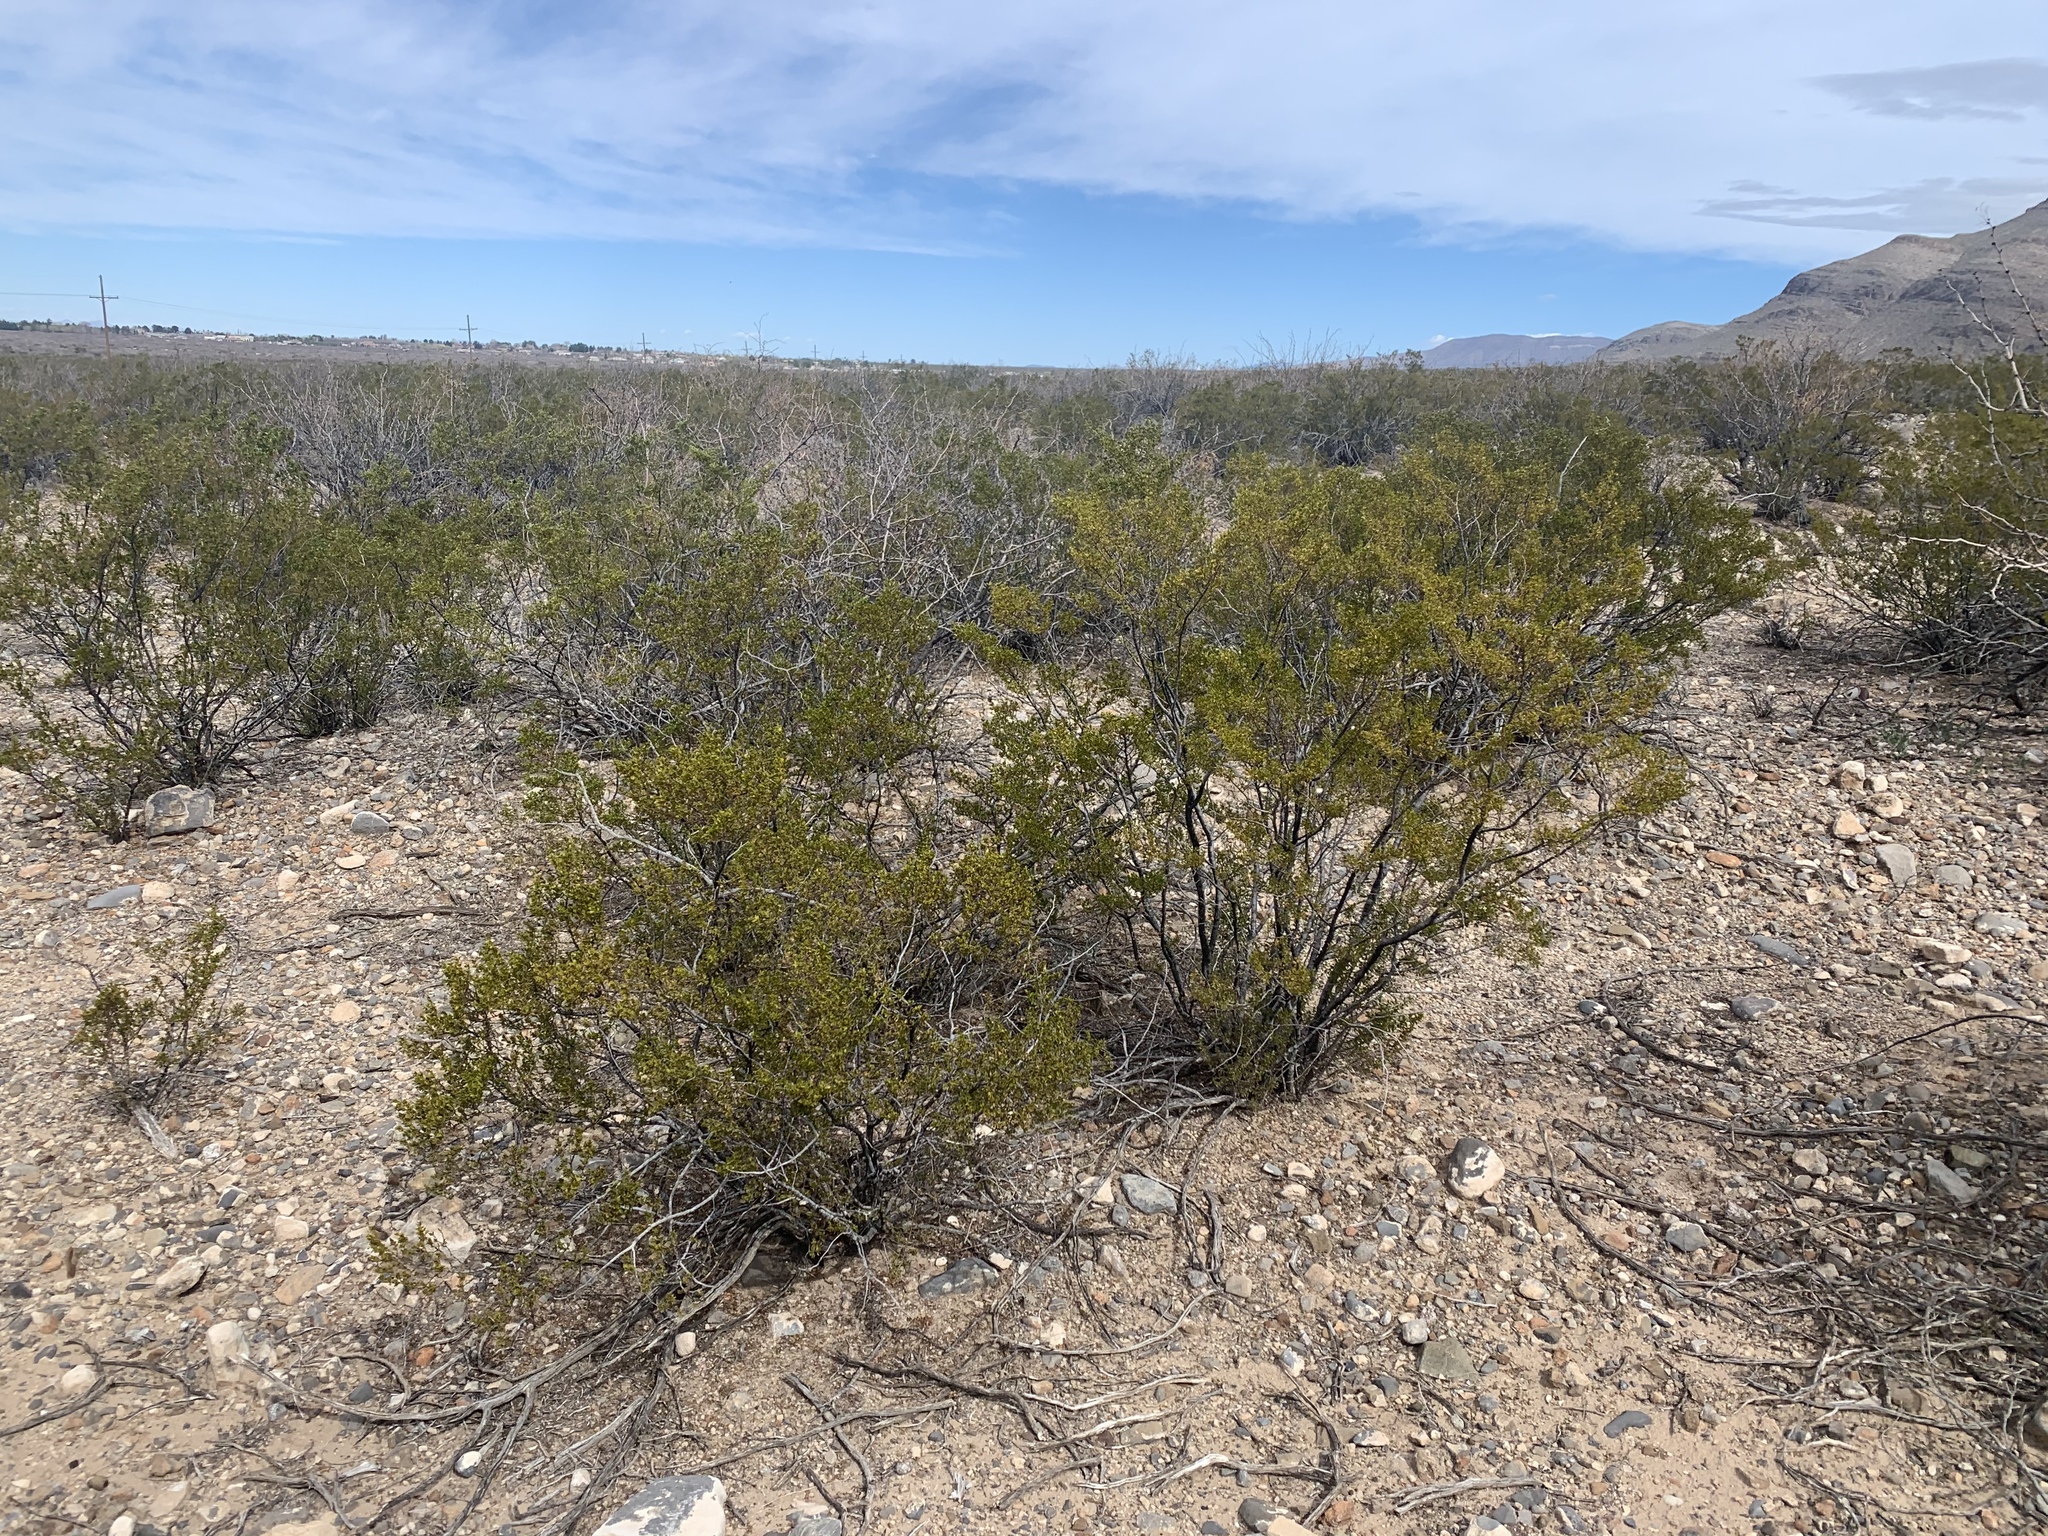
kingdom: Plantae
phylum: Tracheophyta
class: Magnoliopsida
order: Zygophyllales
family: Zygophyllaceae
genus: Larrea
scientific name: Larrea tridentata
